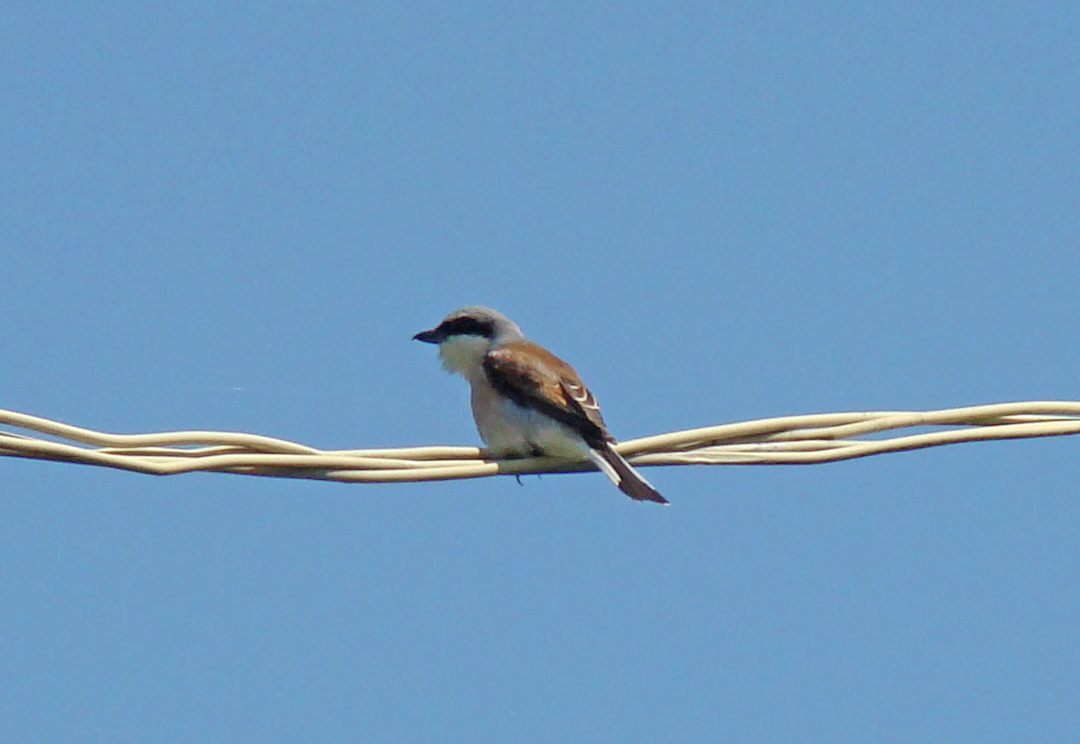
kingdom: Animalia
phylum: Chordata
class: Aves
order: Passeriformes
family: Laniidae
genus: Lanius
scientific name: Lanius collurio
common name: Red-backed shrike
